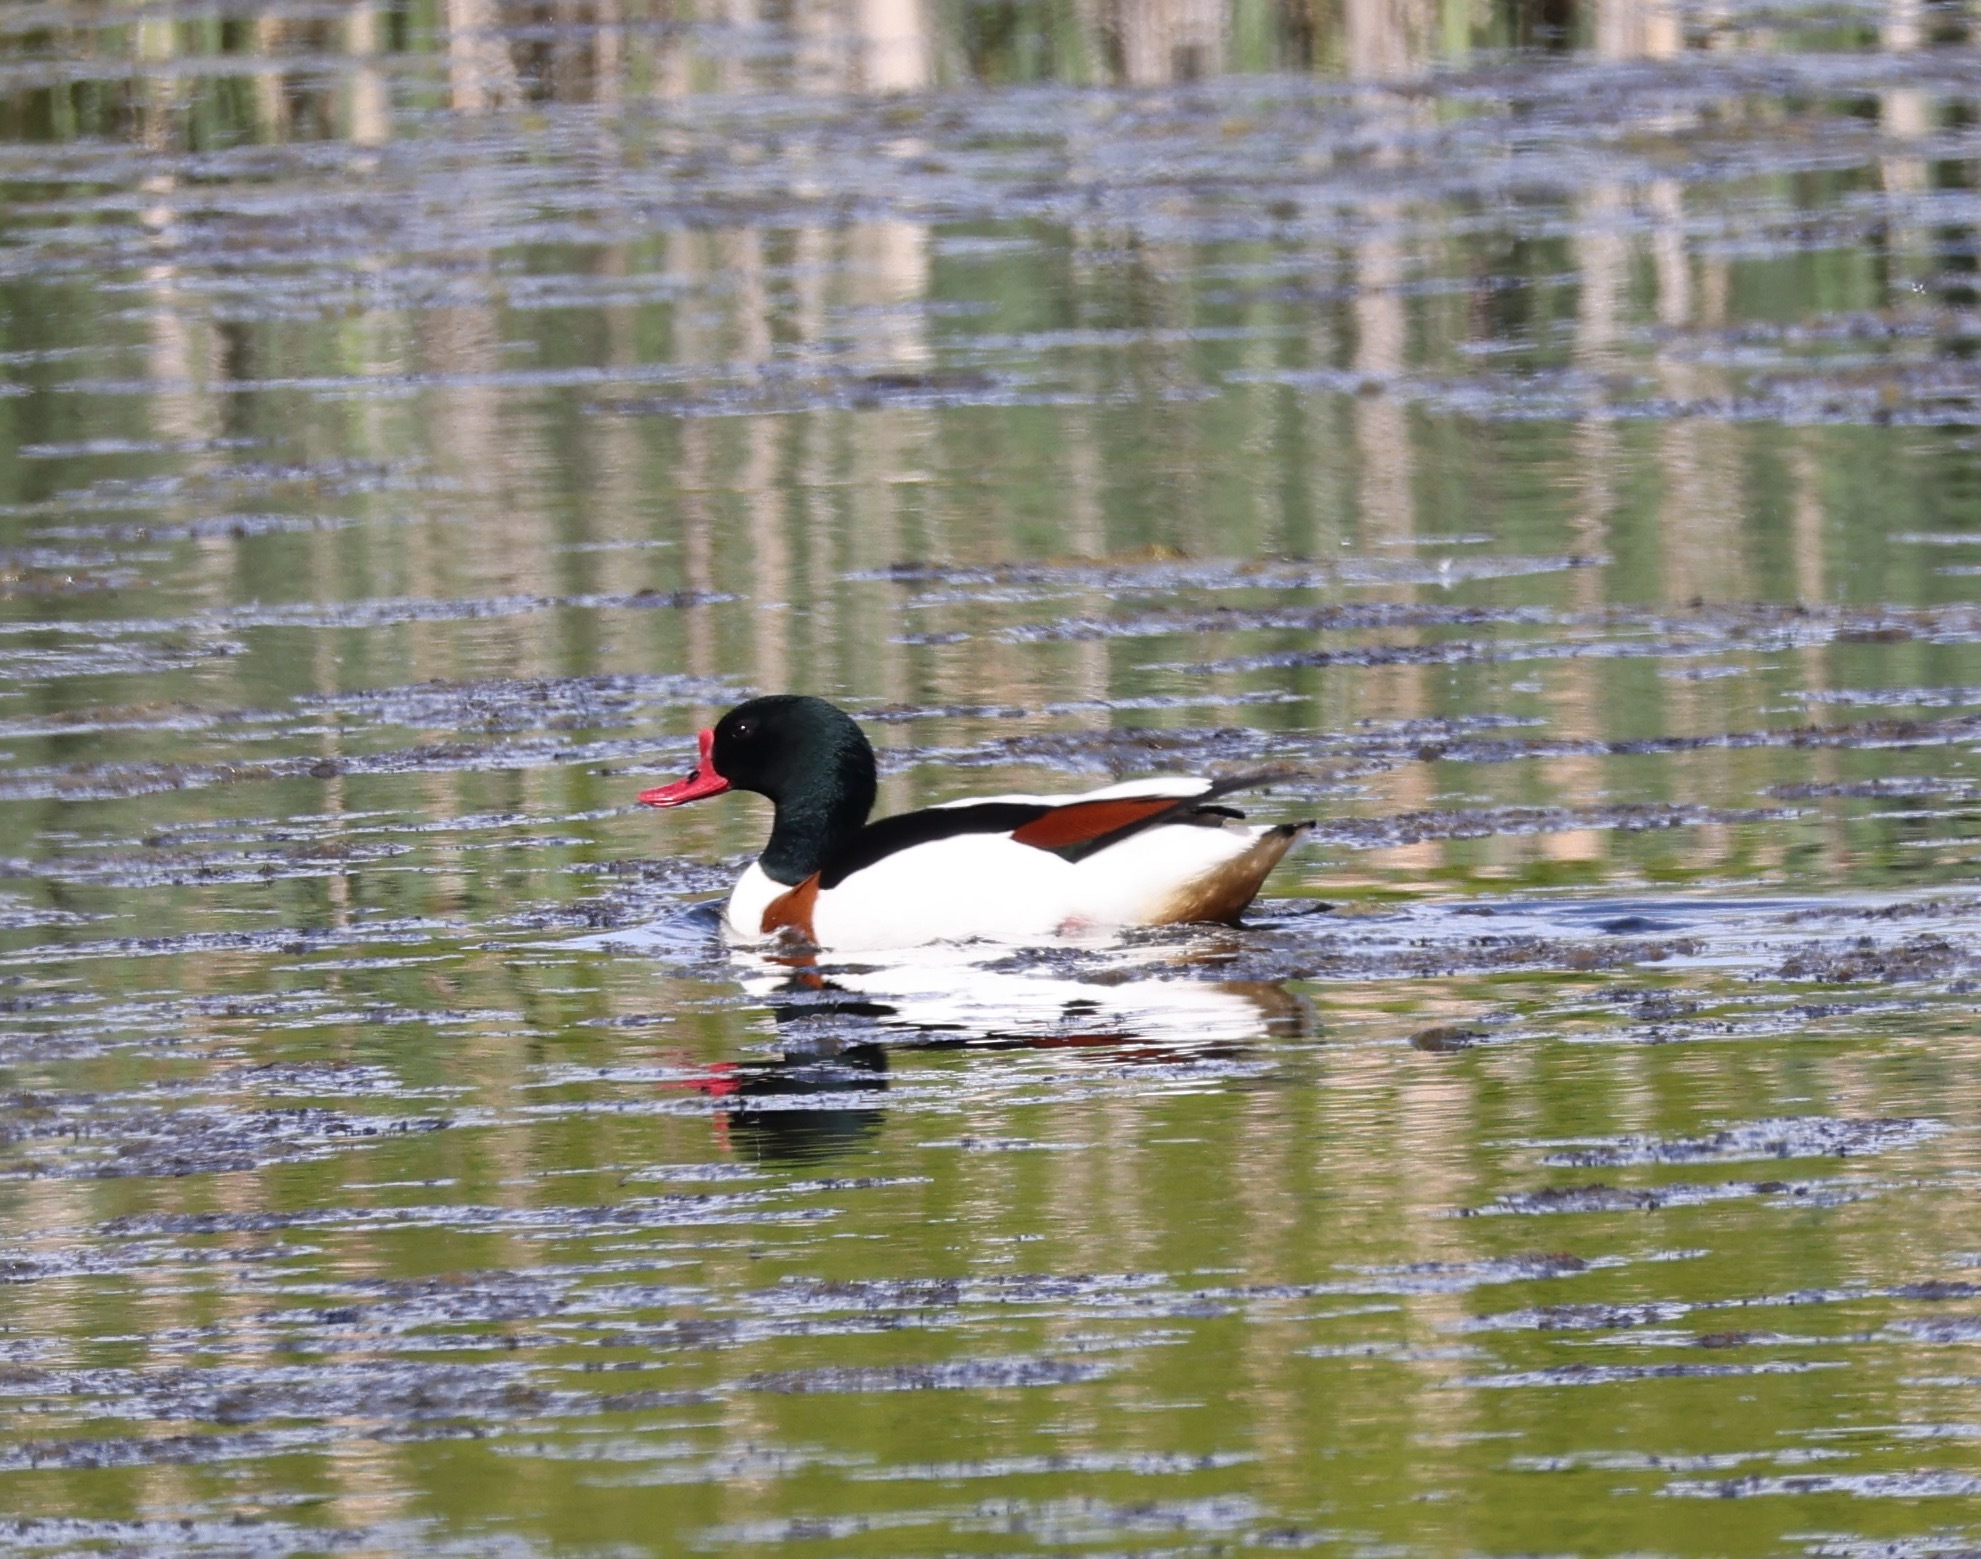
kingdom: Animalia
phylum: Chordata
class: Aves
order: Anseriformes
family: Anatidae
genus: Tadorna
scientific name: Tadorna tadorna
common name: Common shelduck
